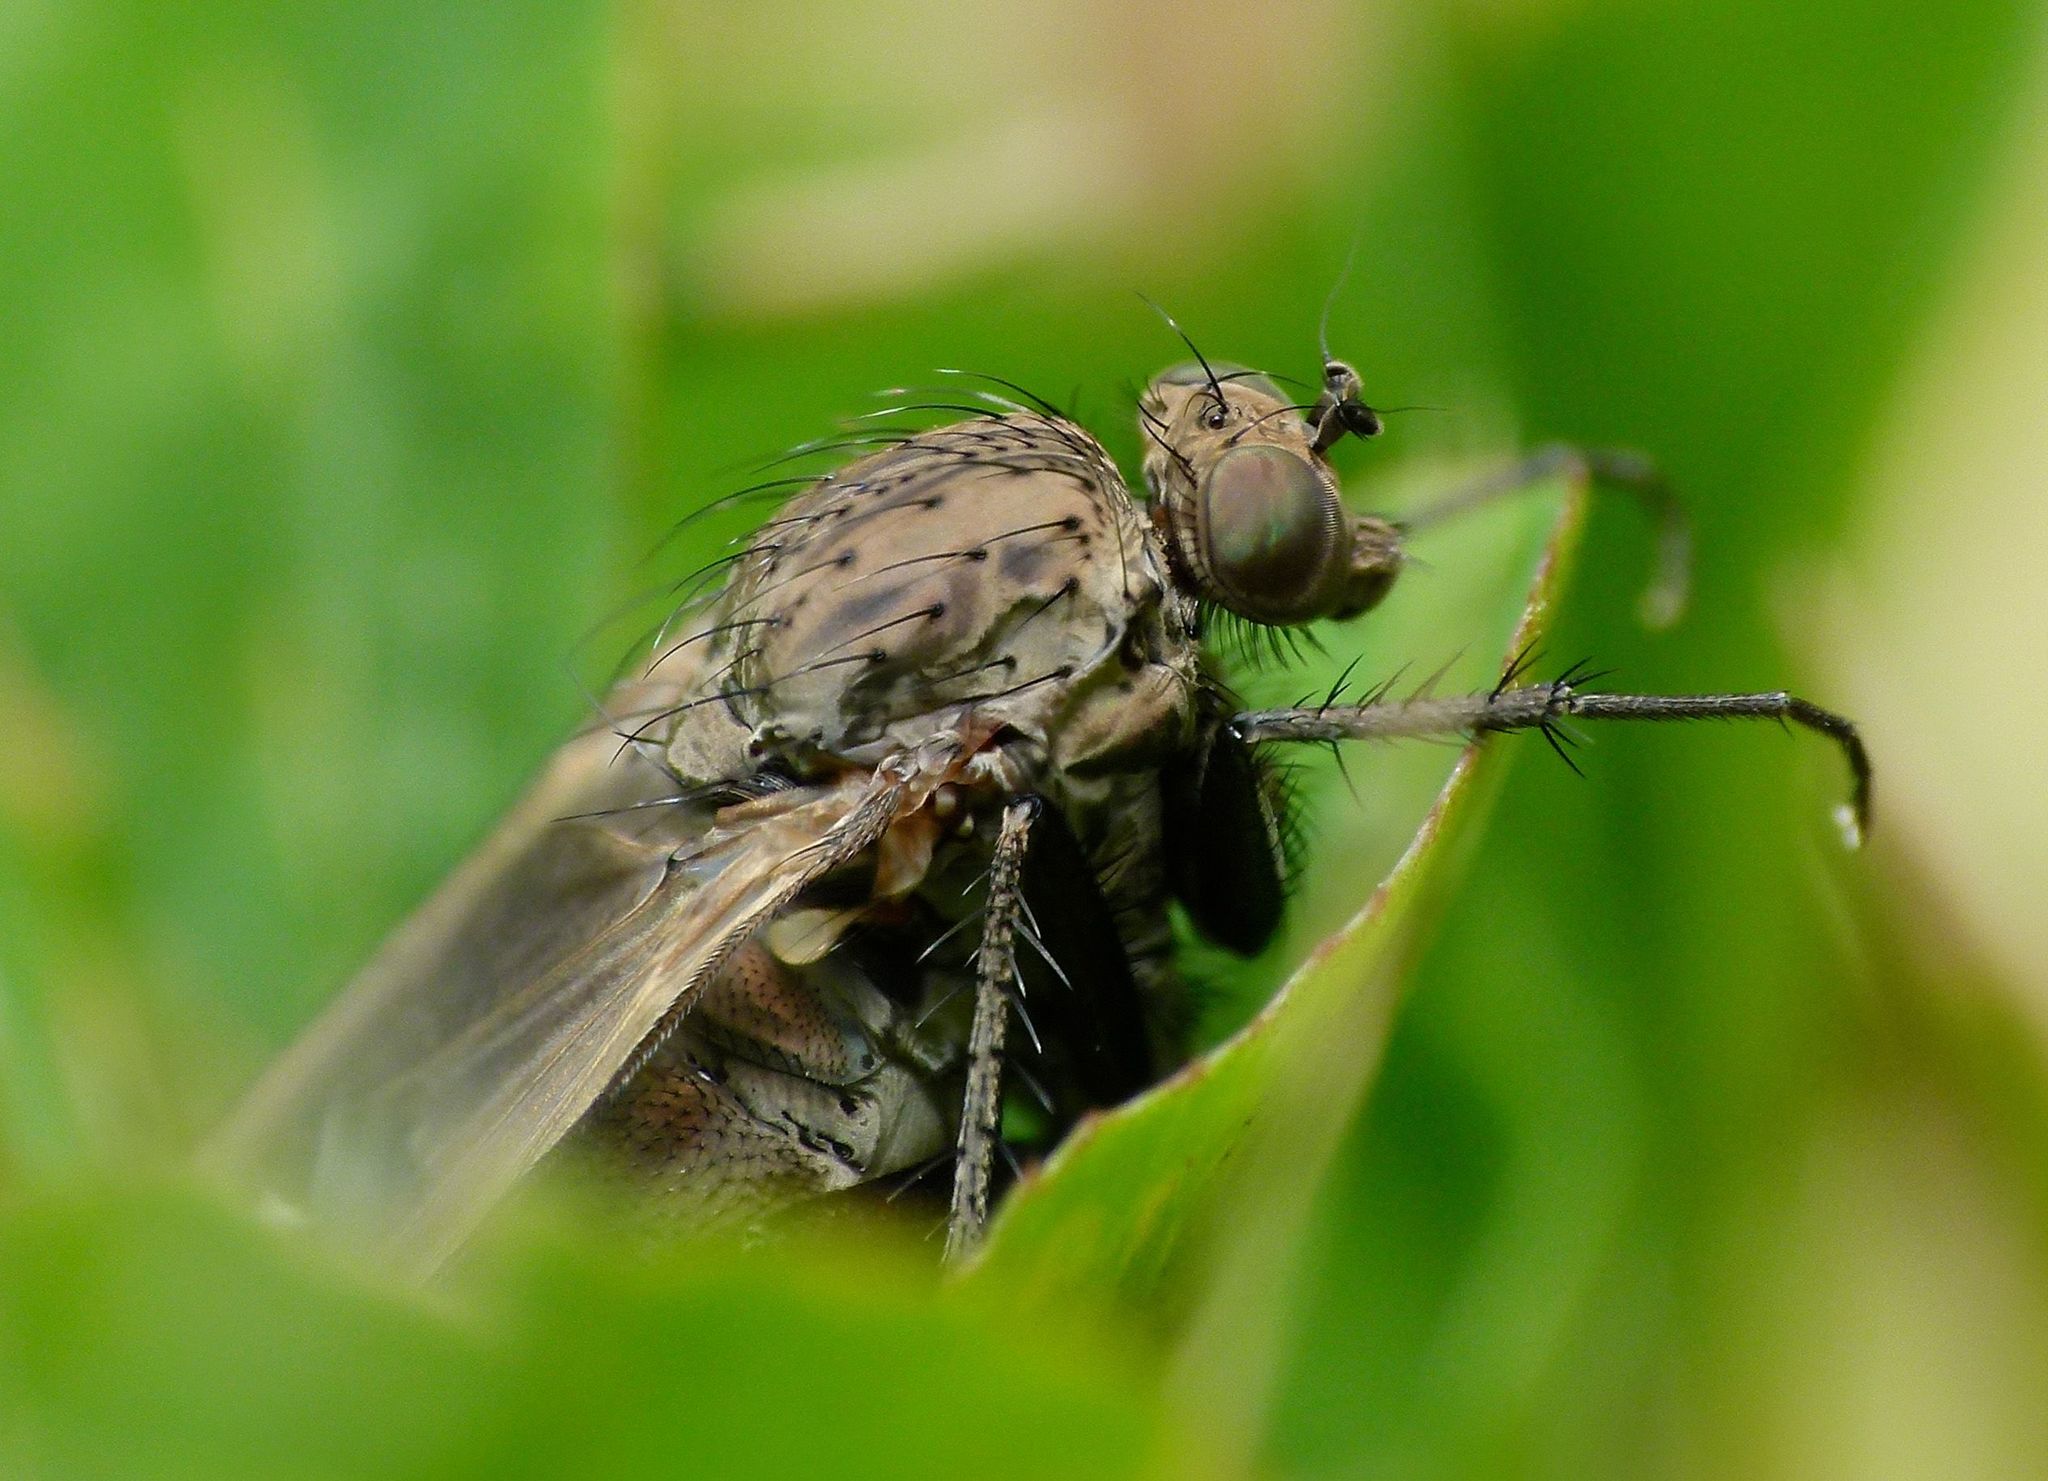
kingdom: Animalia
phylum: Arthropoda
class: Insecta
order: Diptera
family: Dolichopodidae
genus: Ostenia
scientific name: Ostenia robusta
